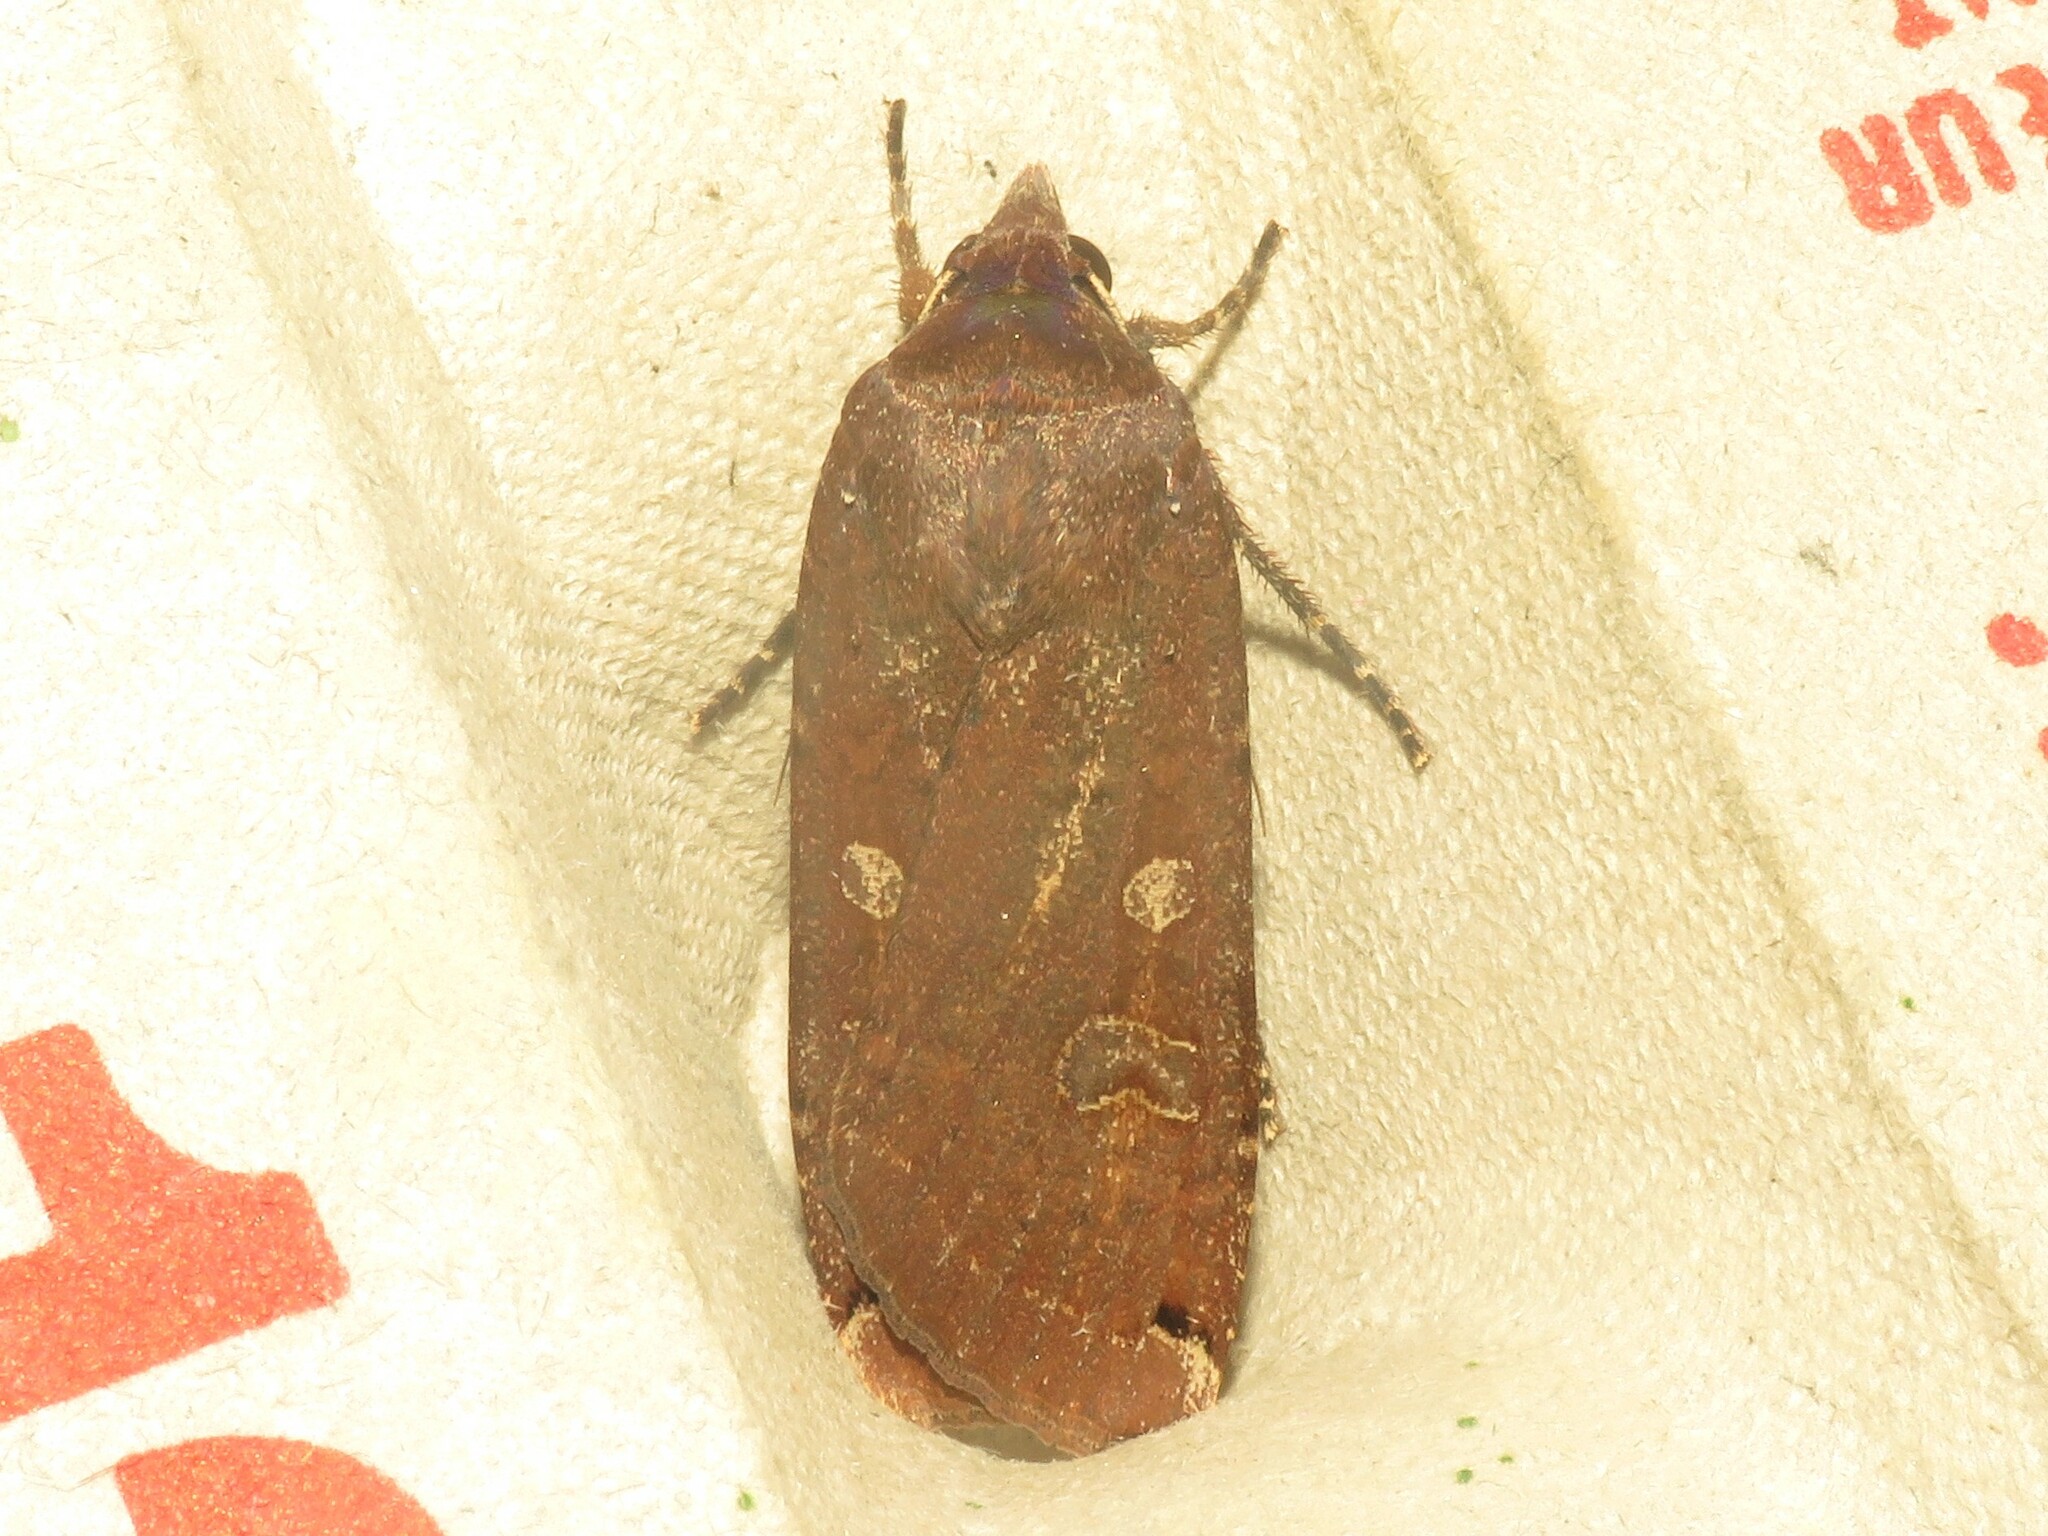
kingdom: Animalia
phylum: Arthropoda
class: Insecta
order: Lepidoptera
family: Noctuidae
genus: Noctua
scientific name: Noctua pronuba
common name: Large yellow underwing
